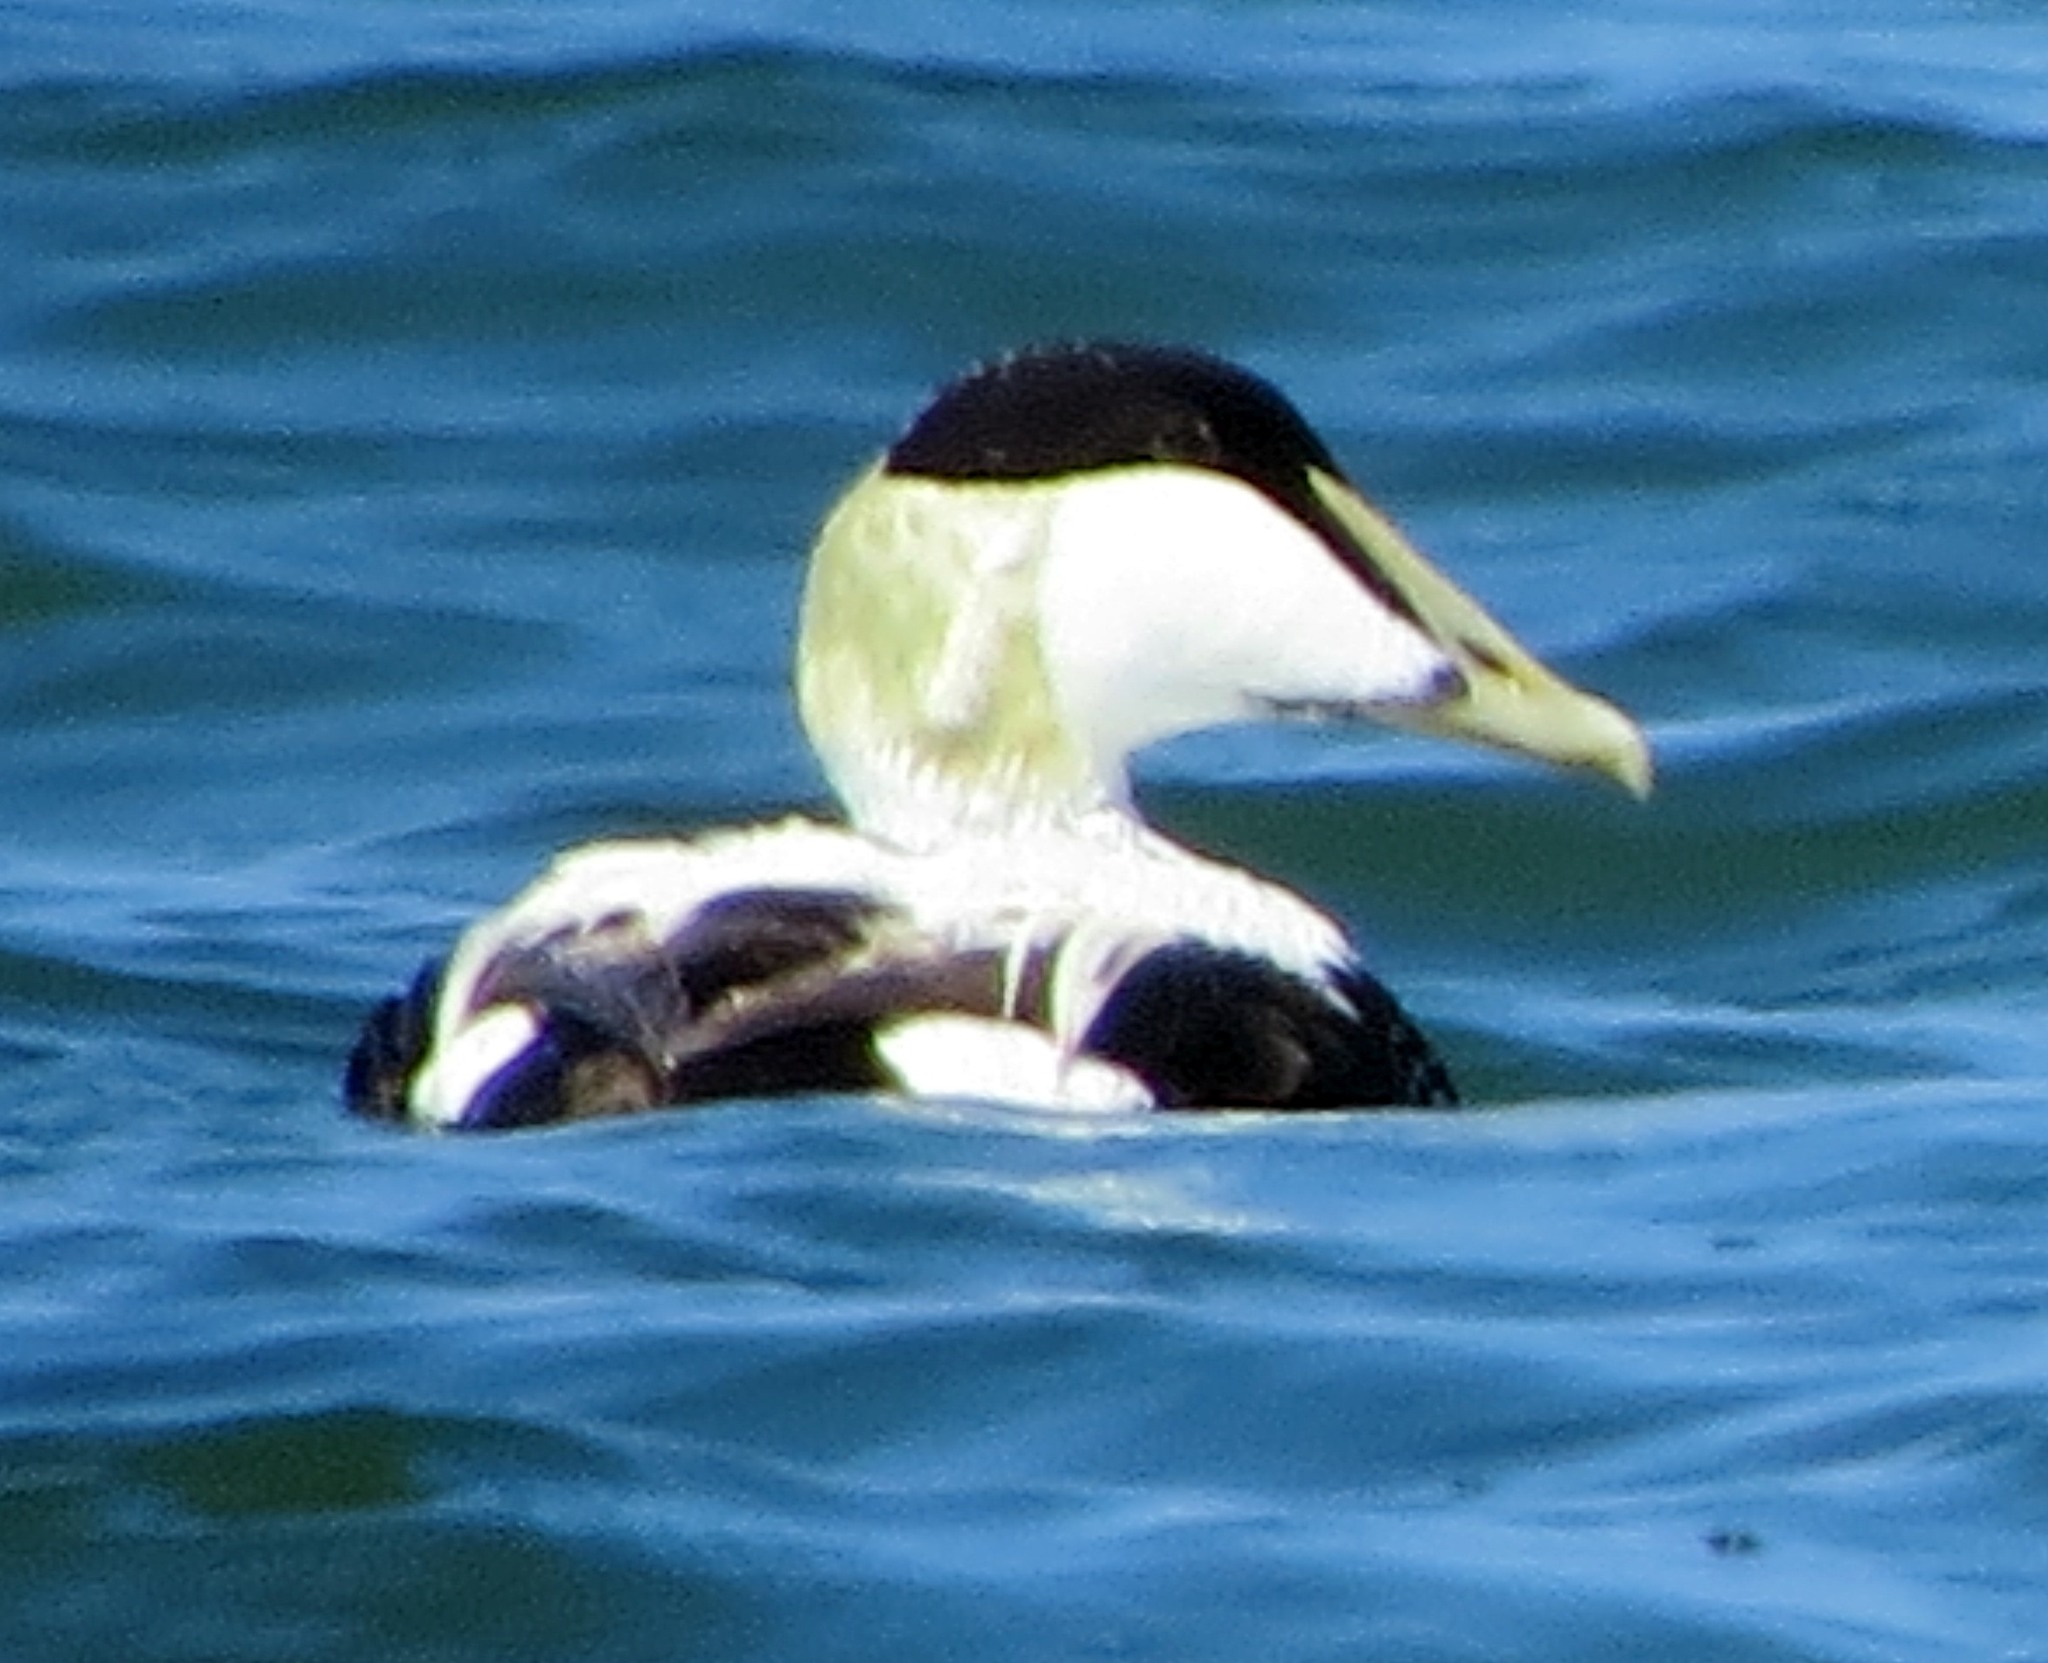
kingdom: Animalia
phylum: Chordata
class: Aves
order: Anseriformes
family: Anatidae
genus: Somateria
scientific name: Somateria mollissima
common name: Common eider
